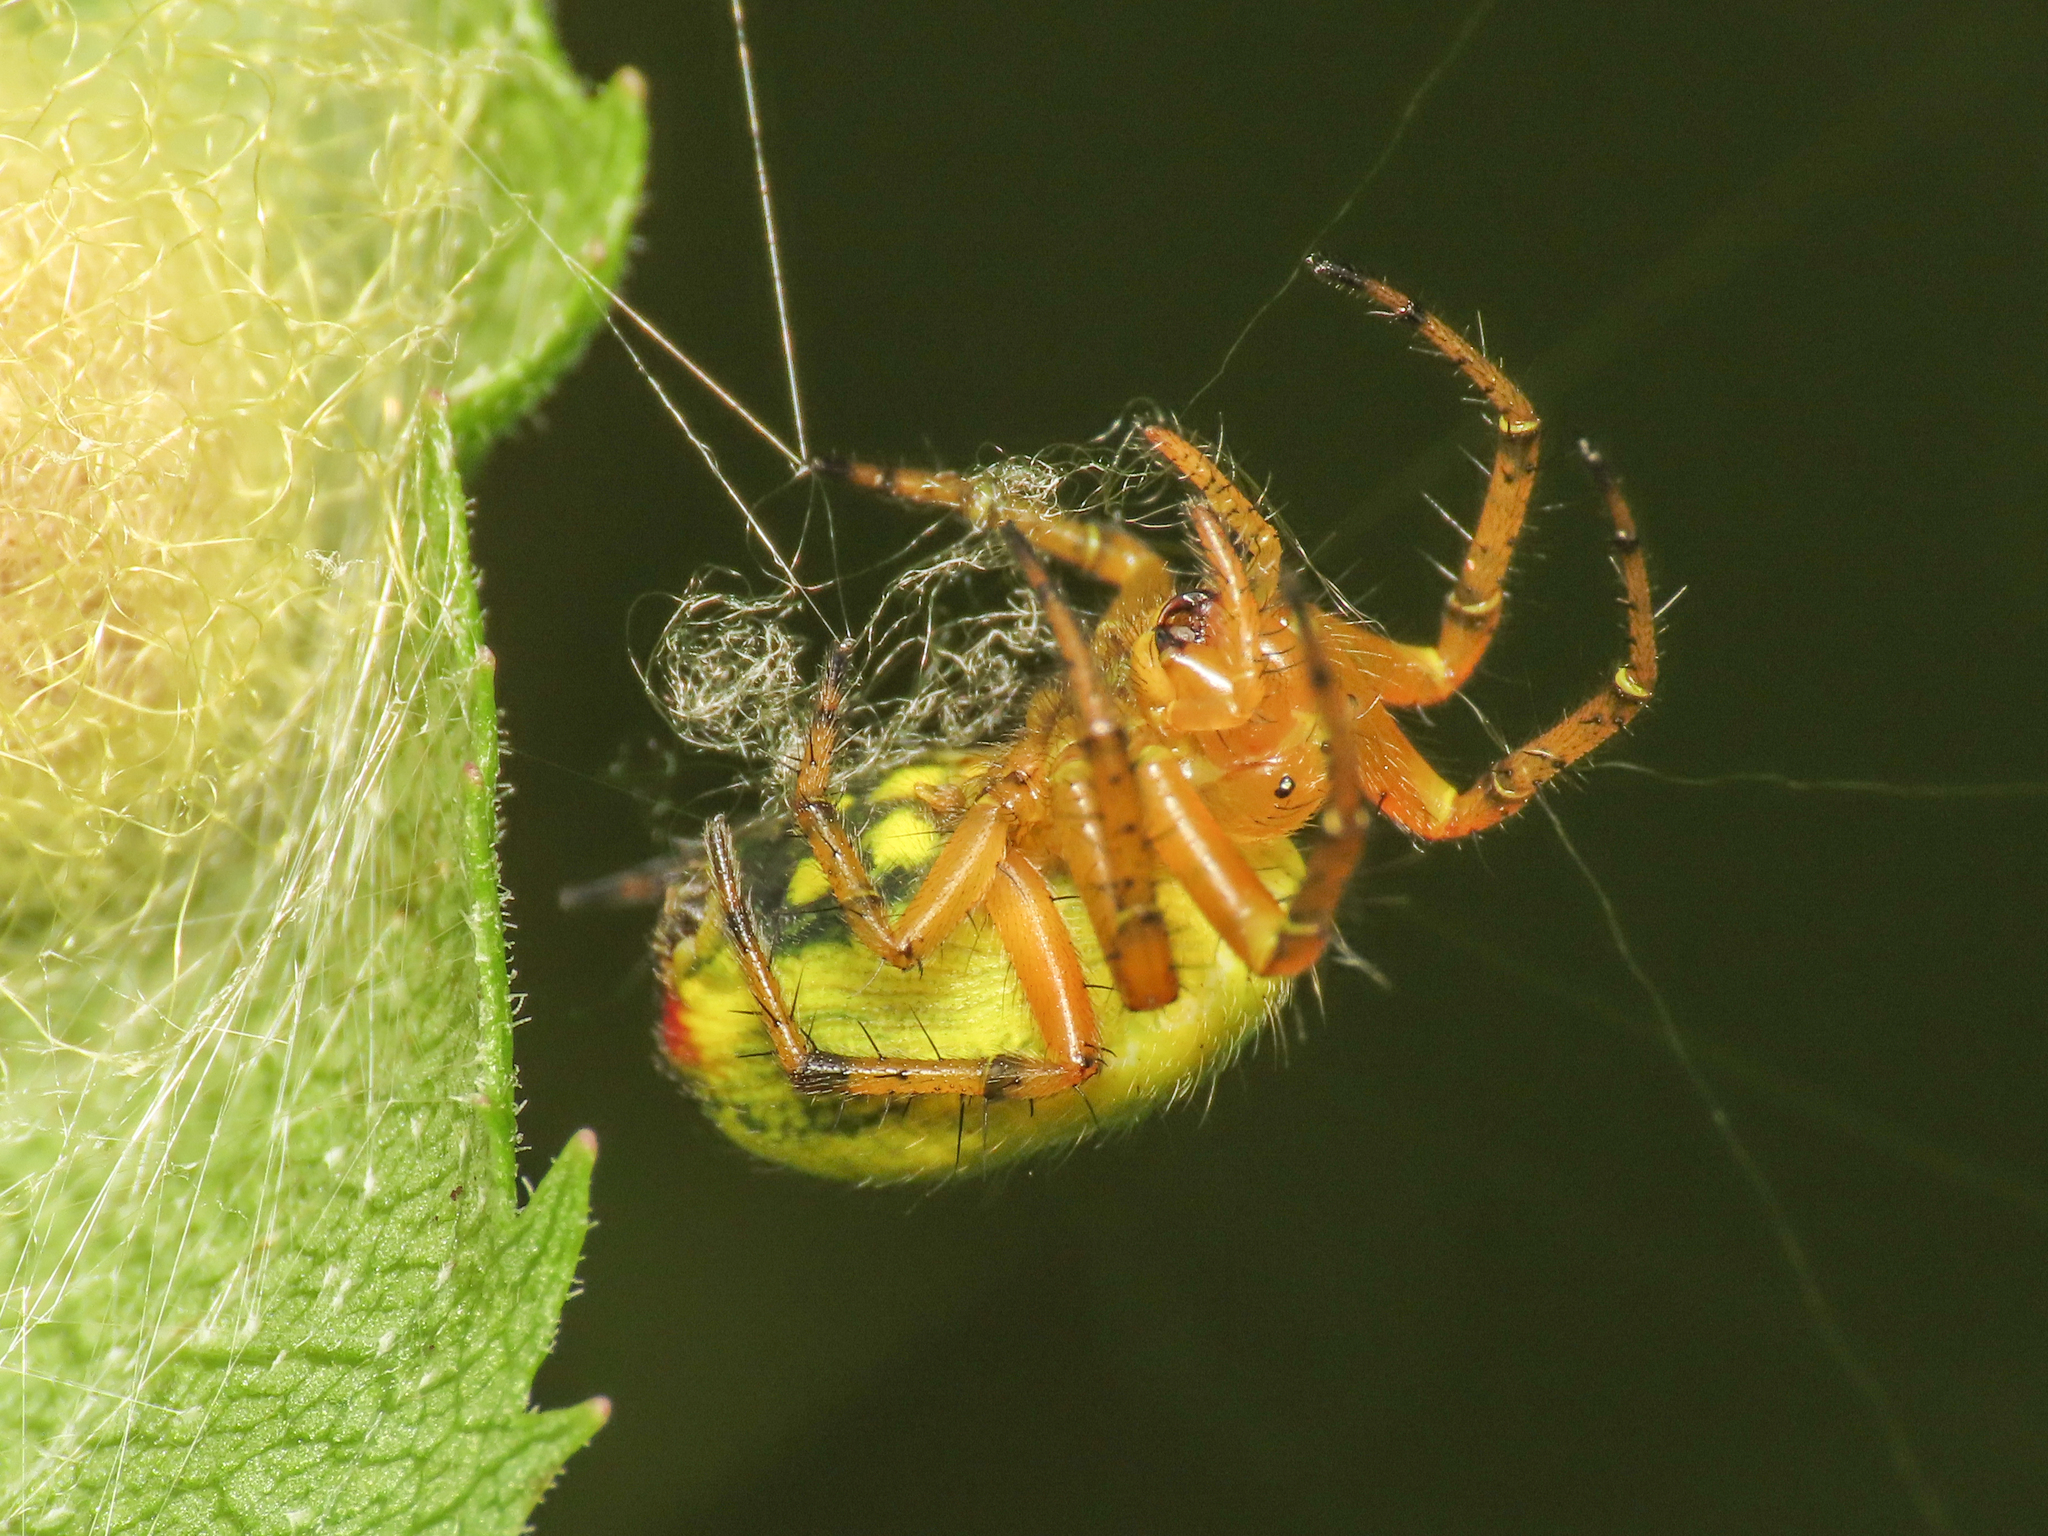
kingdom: Animalia
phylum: Arthropoda
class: Arachnida
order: Araneae
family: Araneidae
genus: Araniella
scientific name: Araniella alpica
